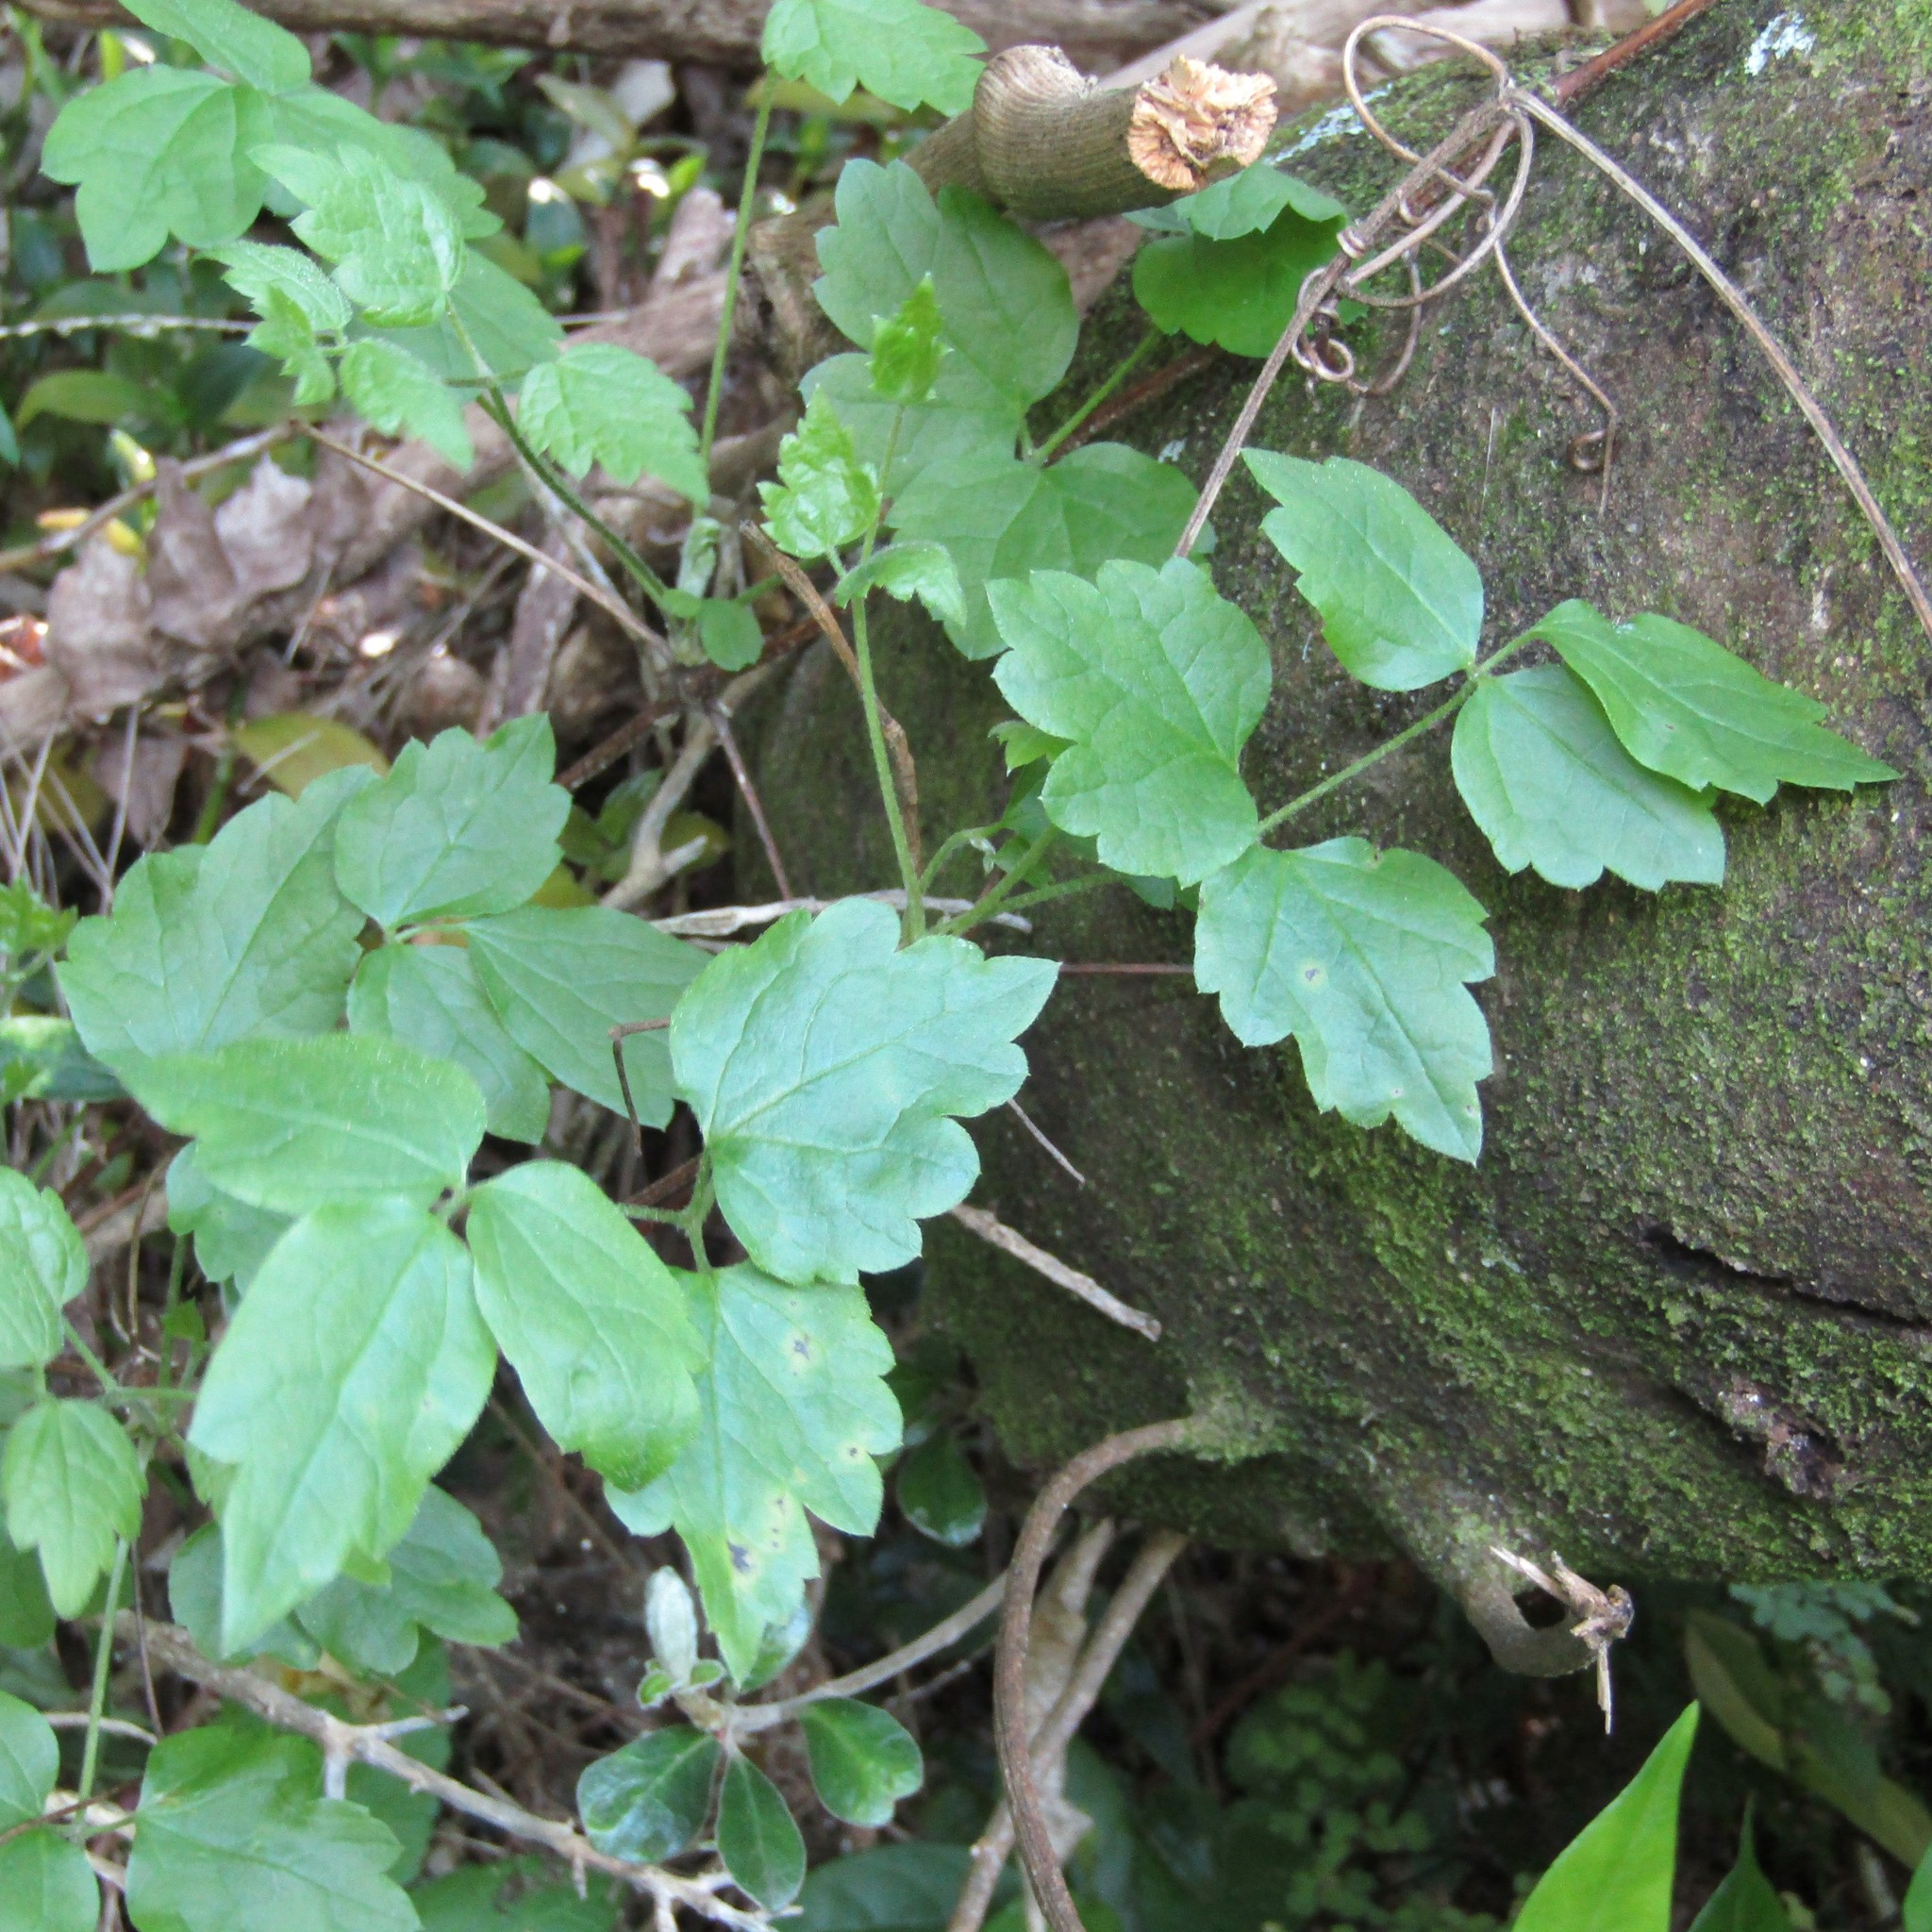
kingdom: Plantae
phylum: Tracheophyta
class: Magnoliopsida
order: Ranunculales
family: Ranunculaceae
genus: Clematis
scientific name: Clematis vitalba
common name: Evergreen clematis
